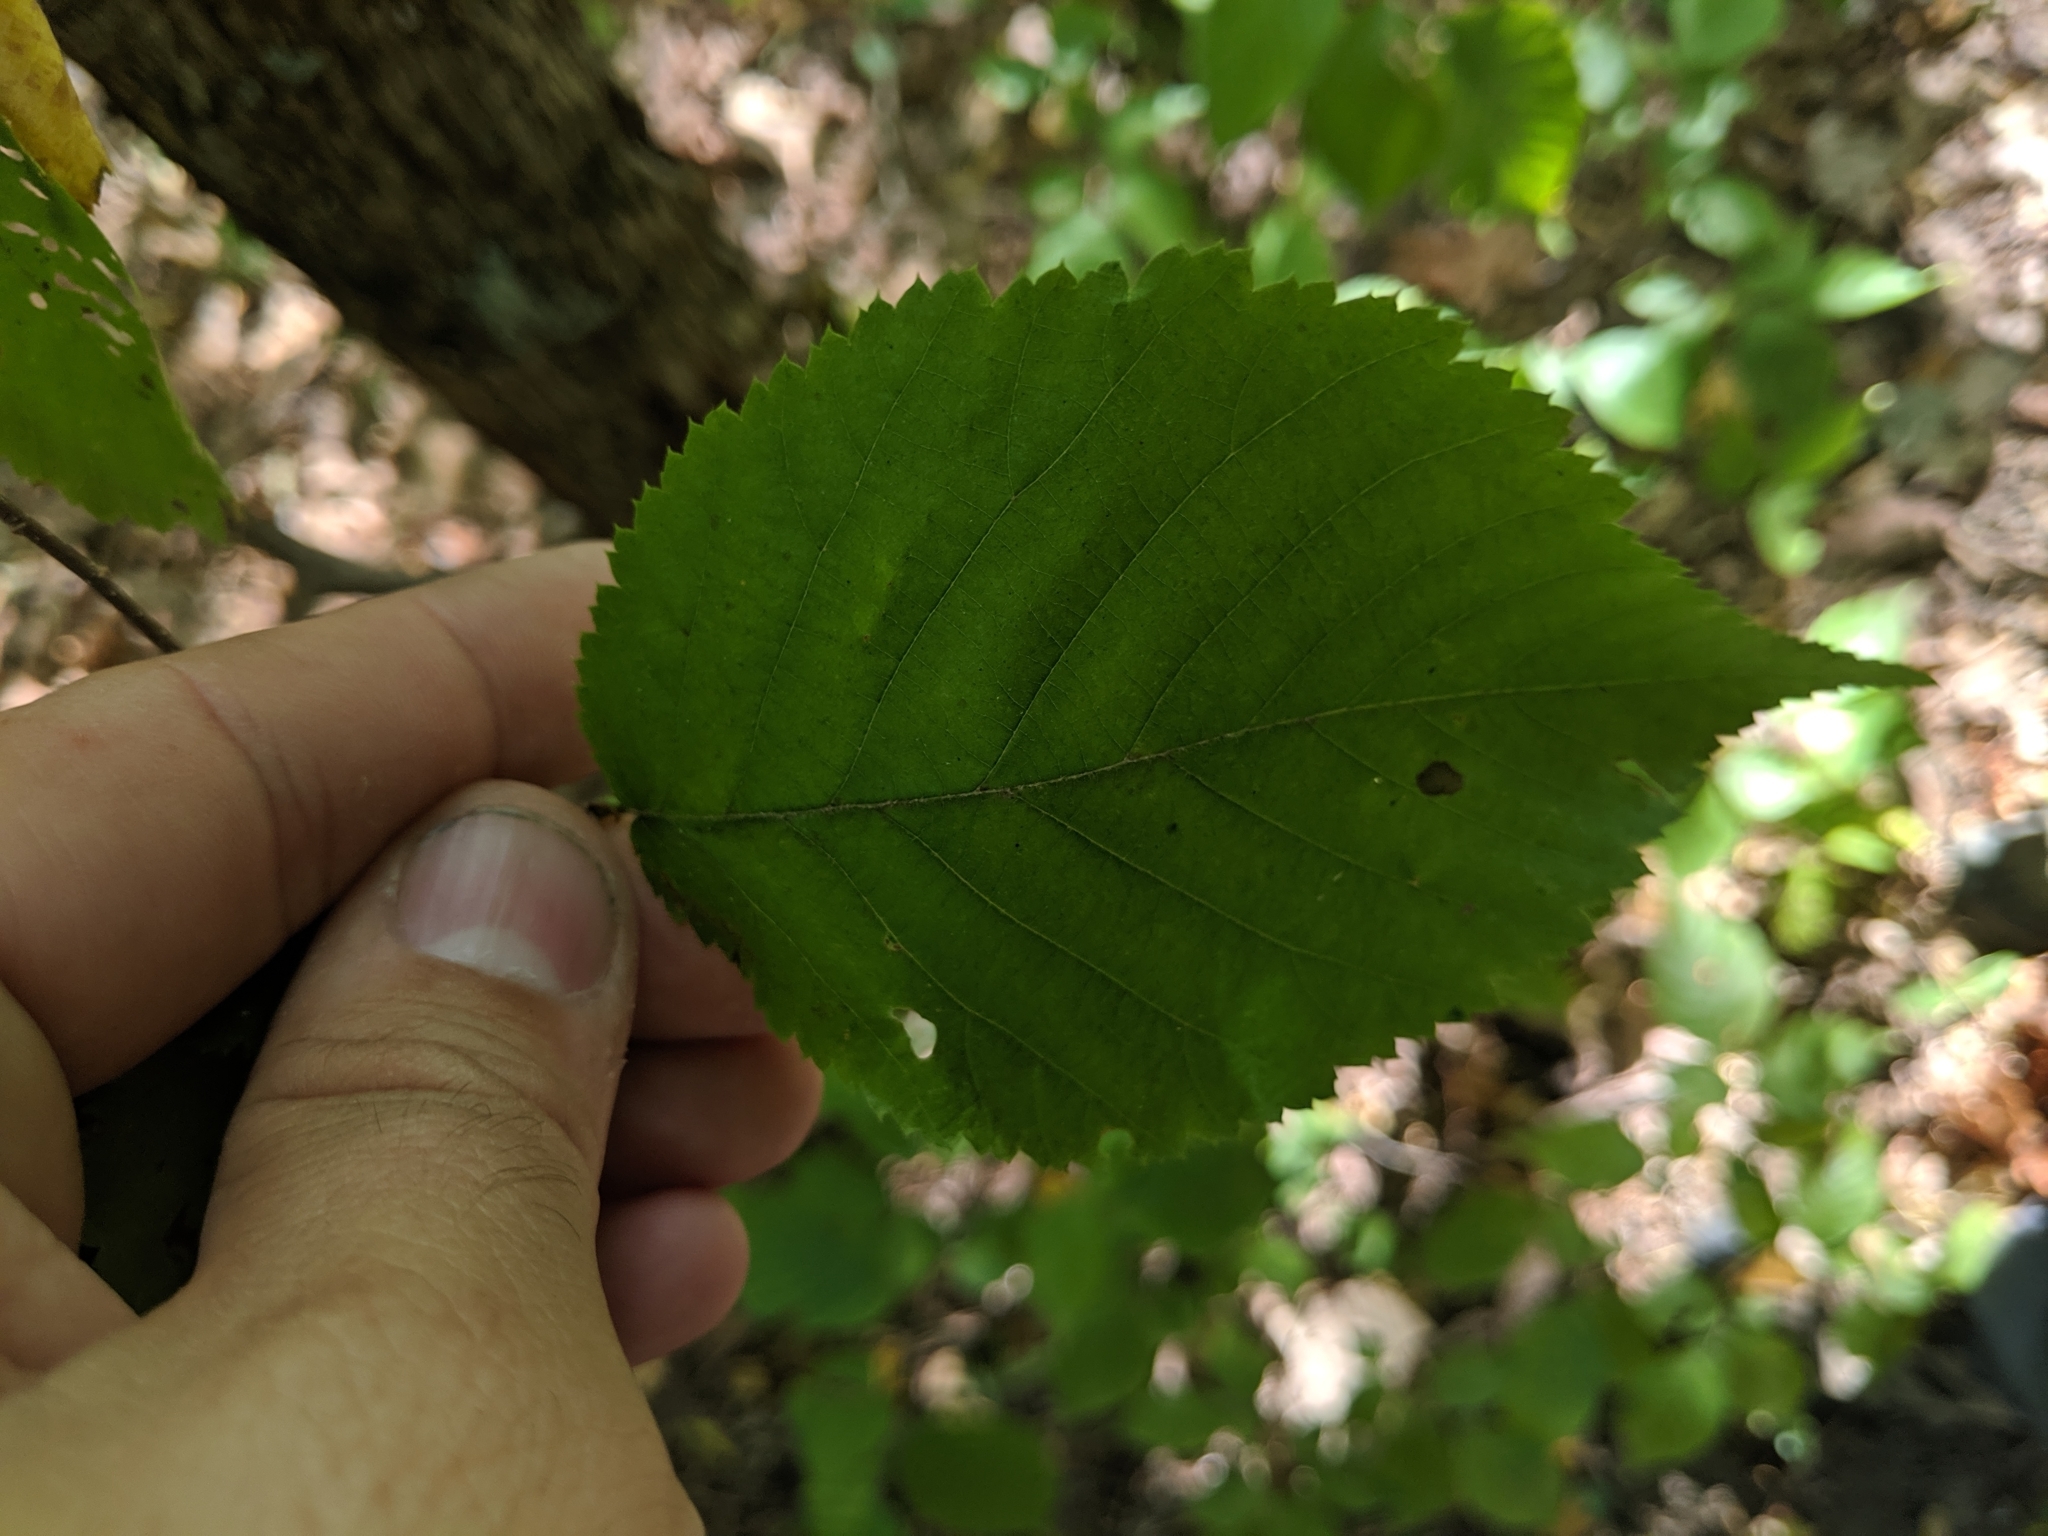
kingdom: Plantae
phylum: Tracheophyta
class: Magnoliopsida
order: Fagales
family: Betulaceae
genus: Ostrya
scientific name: Ostrya virginiana
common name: Ironwood
